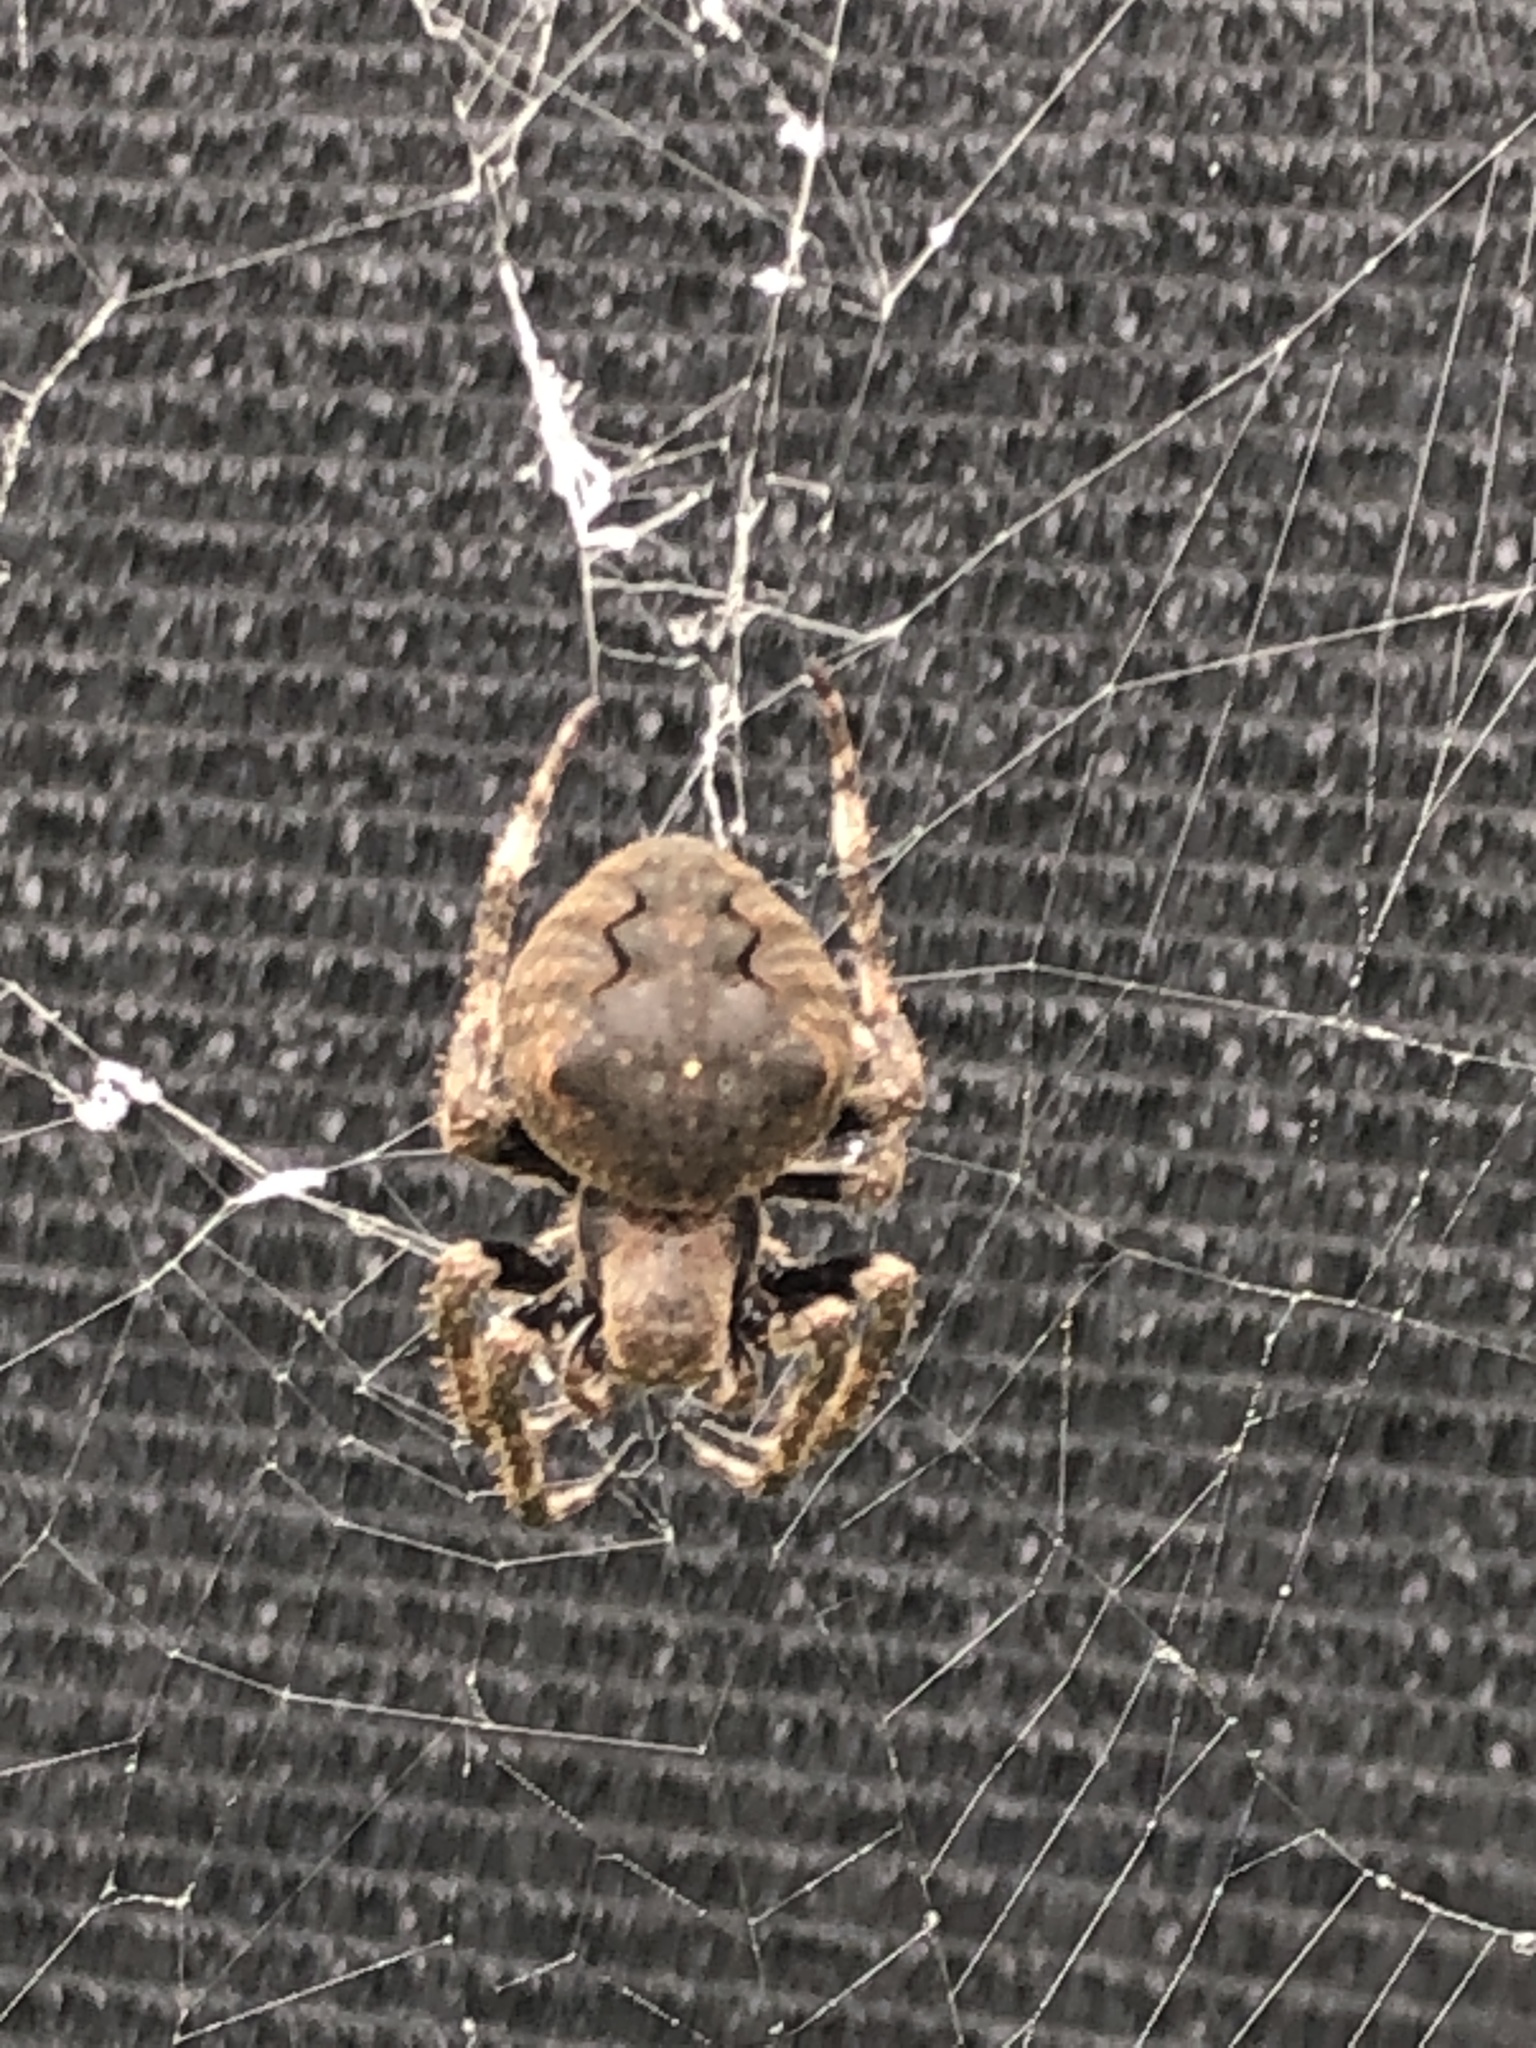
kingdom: Animalia
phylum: Arthropoda
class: Arachnida
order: Araneae
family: Araneidae
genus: Araneus
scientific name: Araneus ventricosus
